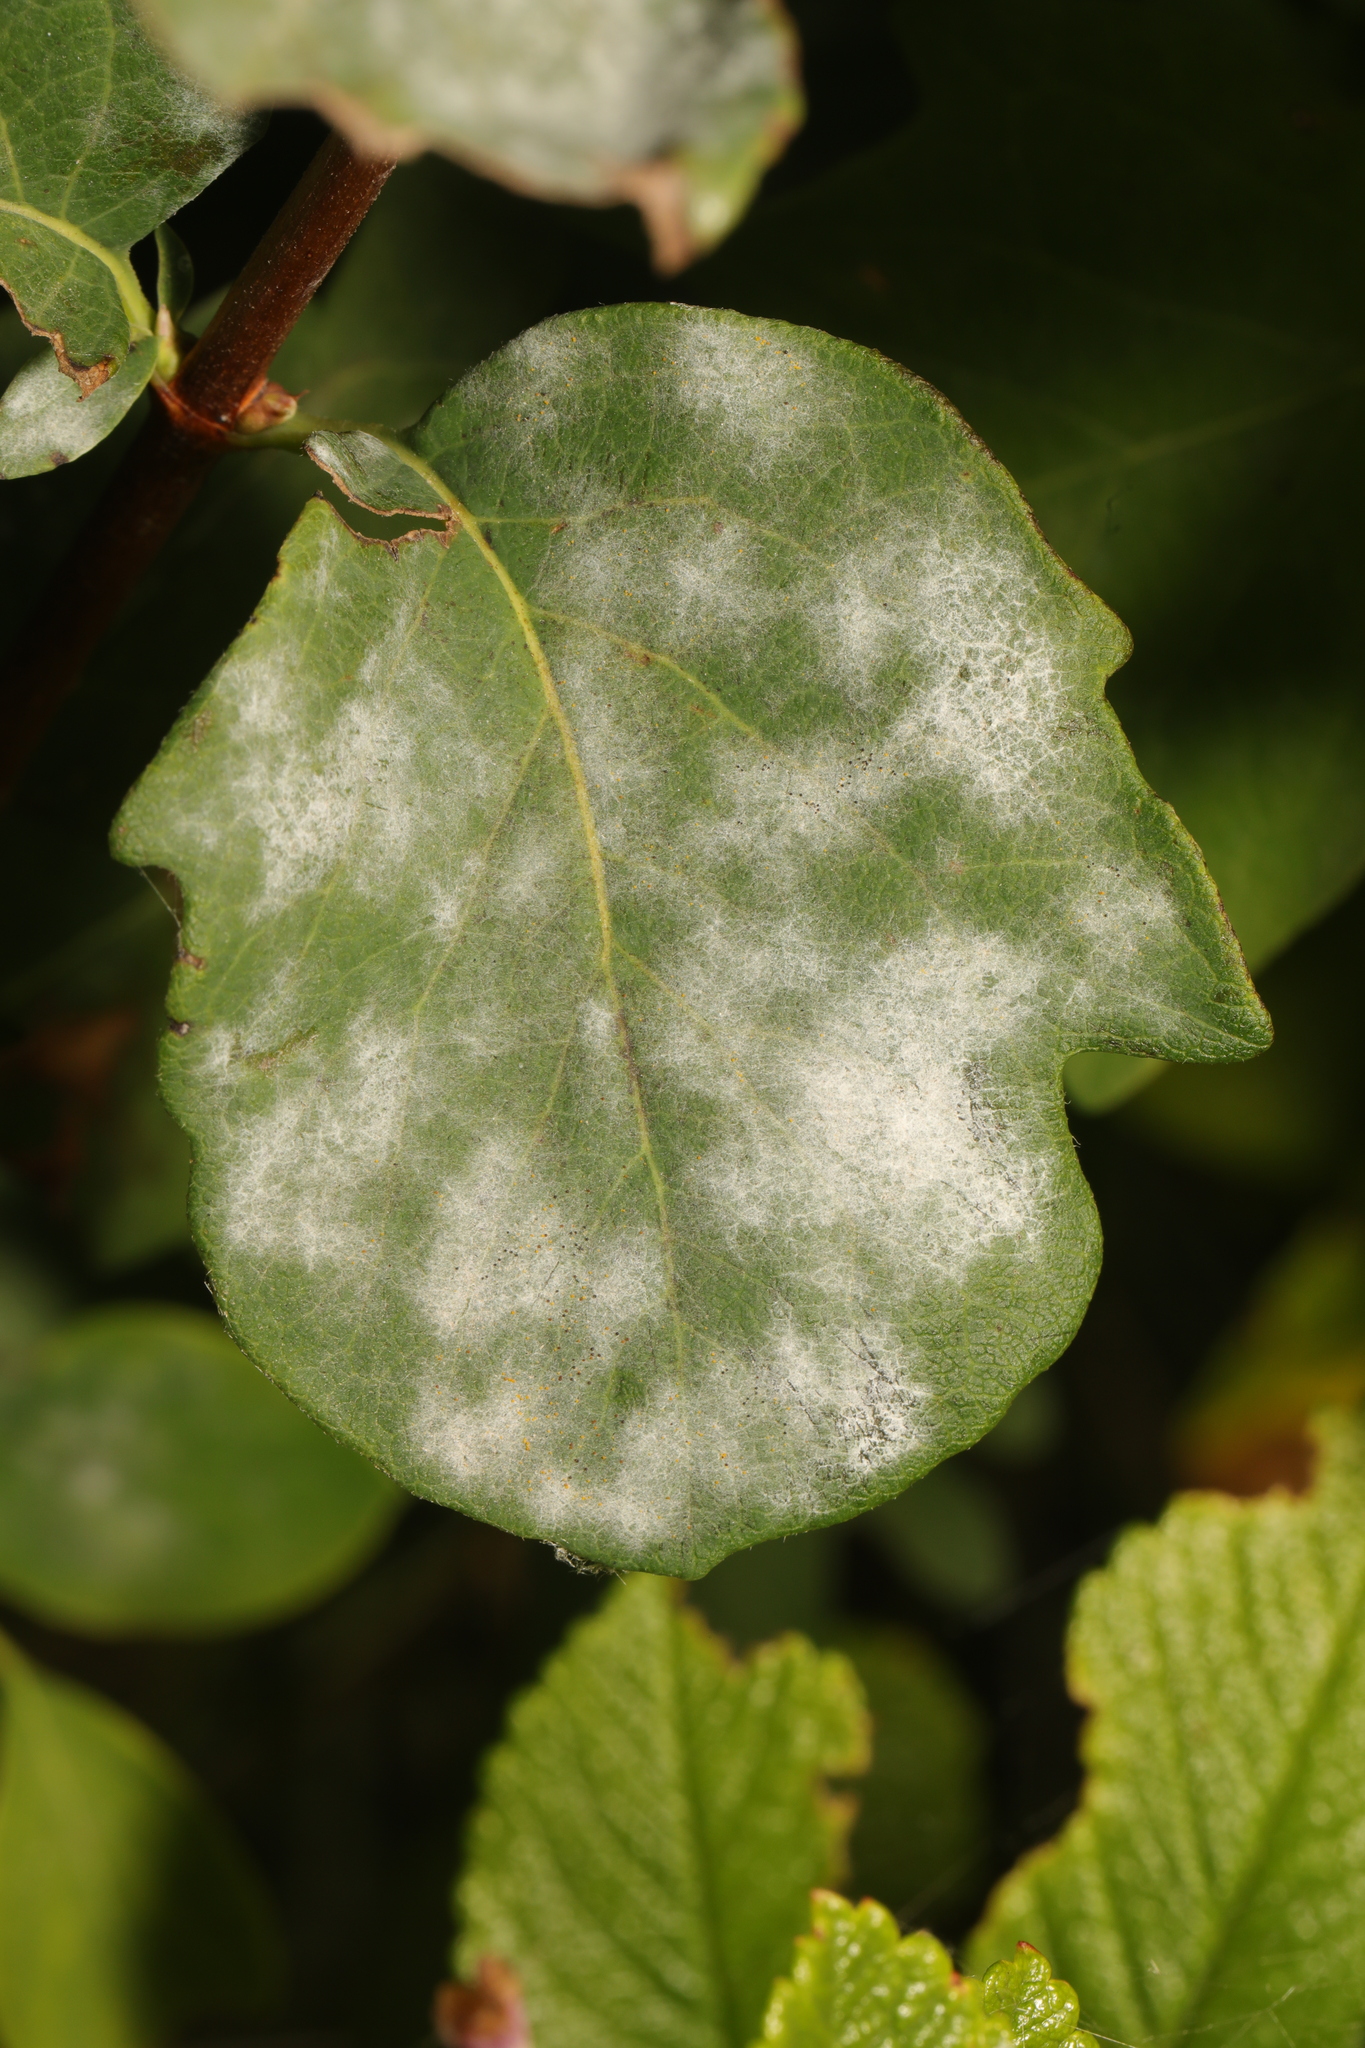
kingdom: Fungi
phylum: Ascomycota
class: Leotiomycetes
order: Helotiales
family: Erysiphaceae
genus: Erysiphe
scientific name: Erysiphe symphoricarpi
